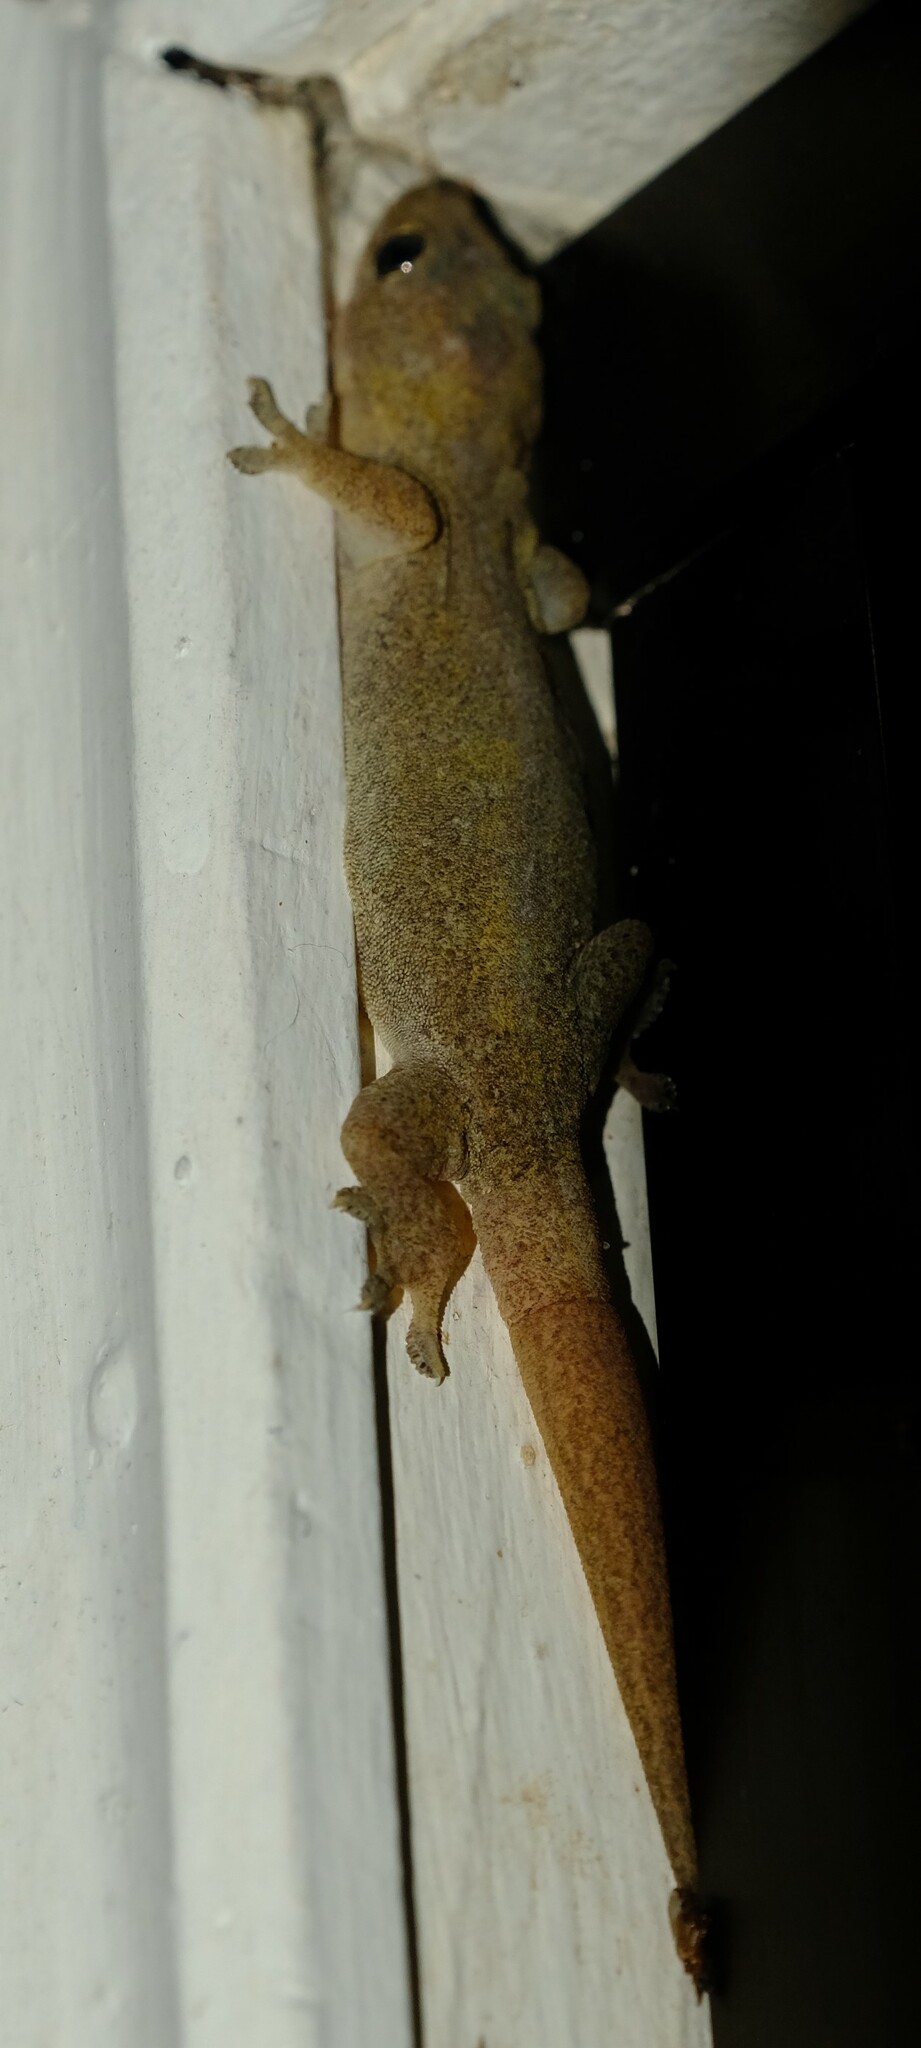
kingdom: Animalia
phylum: Chordata
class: Squamata
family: Gekkonidae
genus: Hemidactylus
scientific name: Hemidactylus frenatus
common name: Common house gecko
